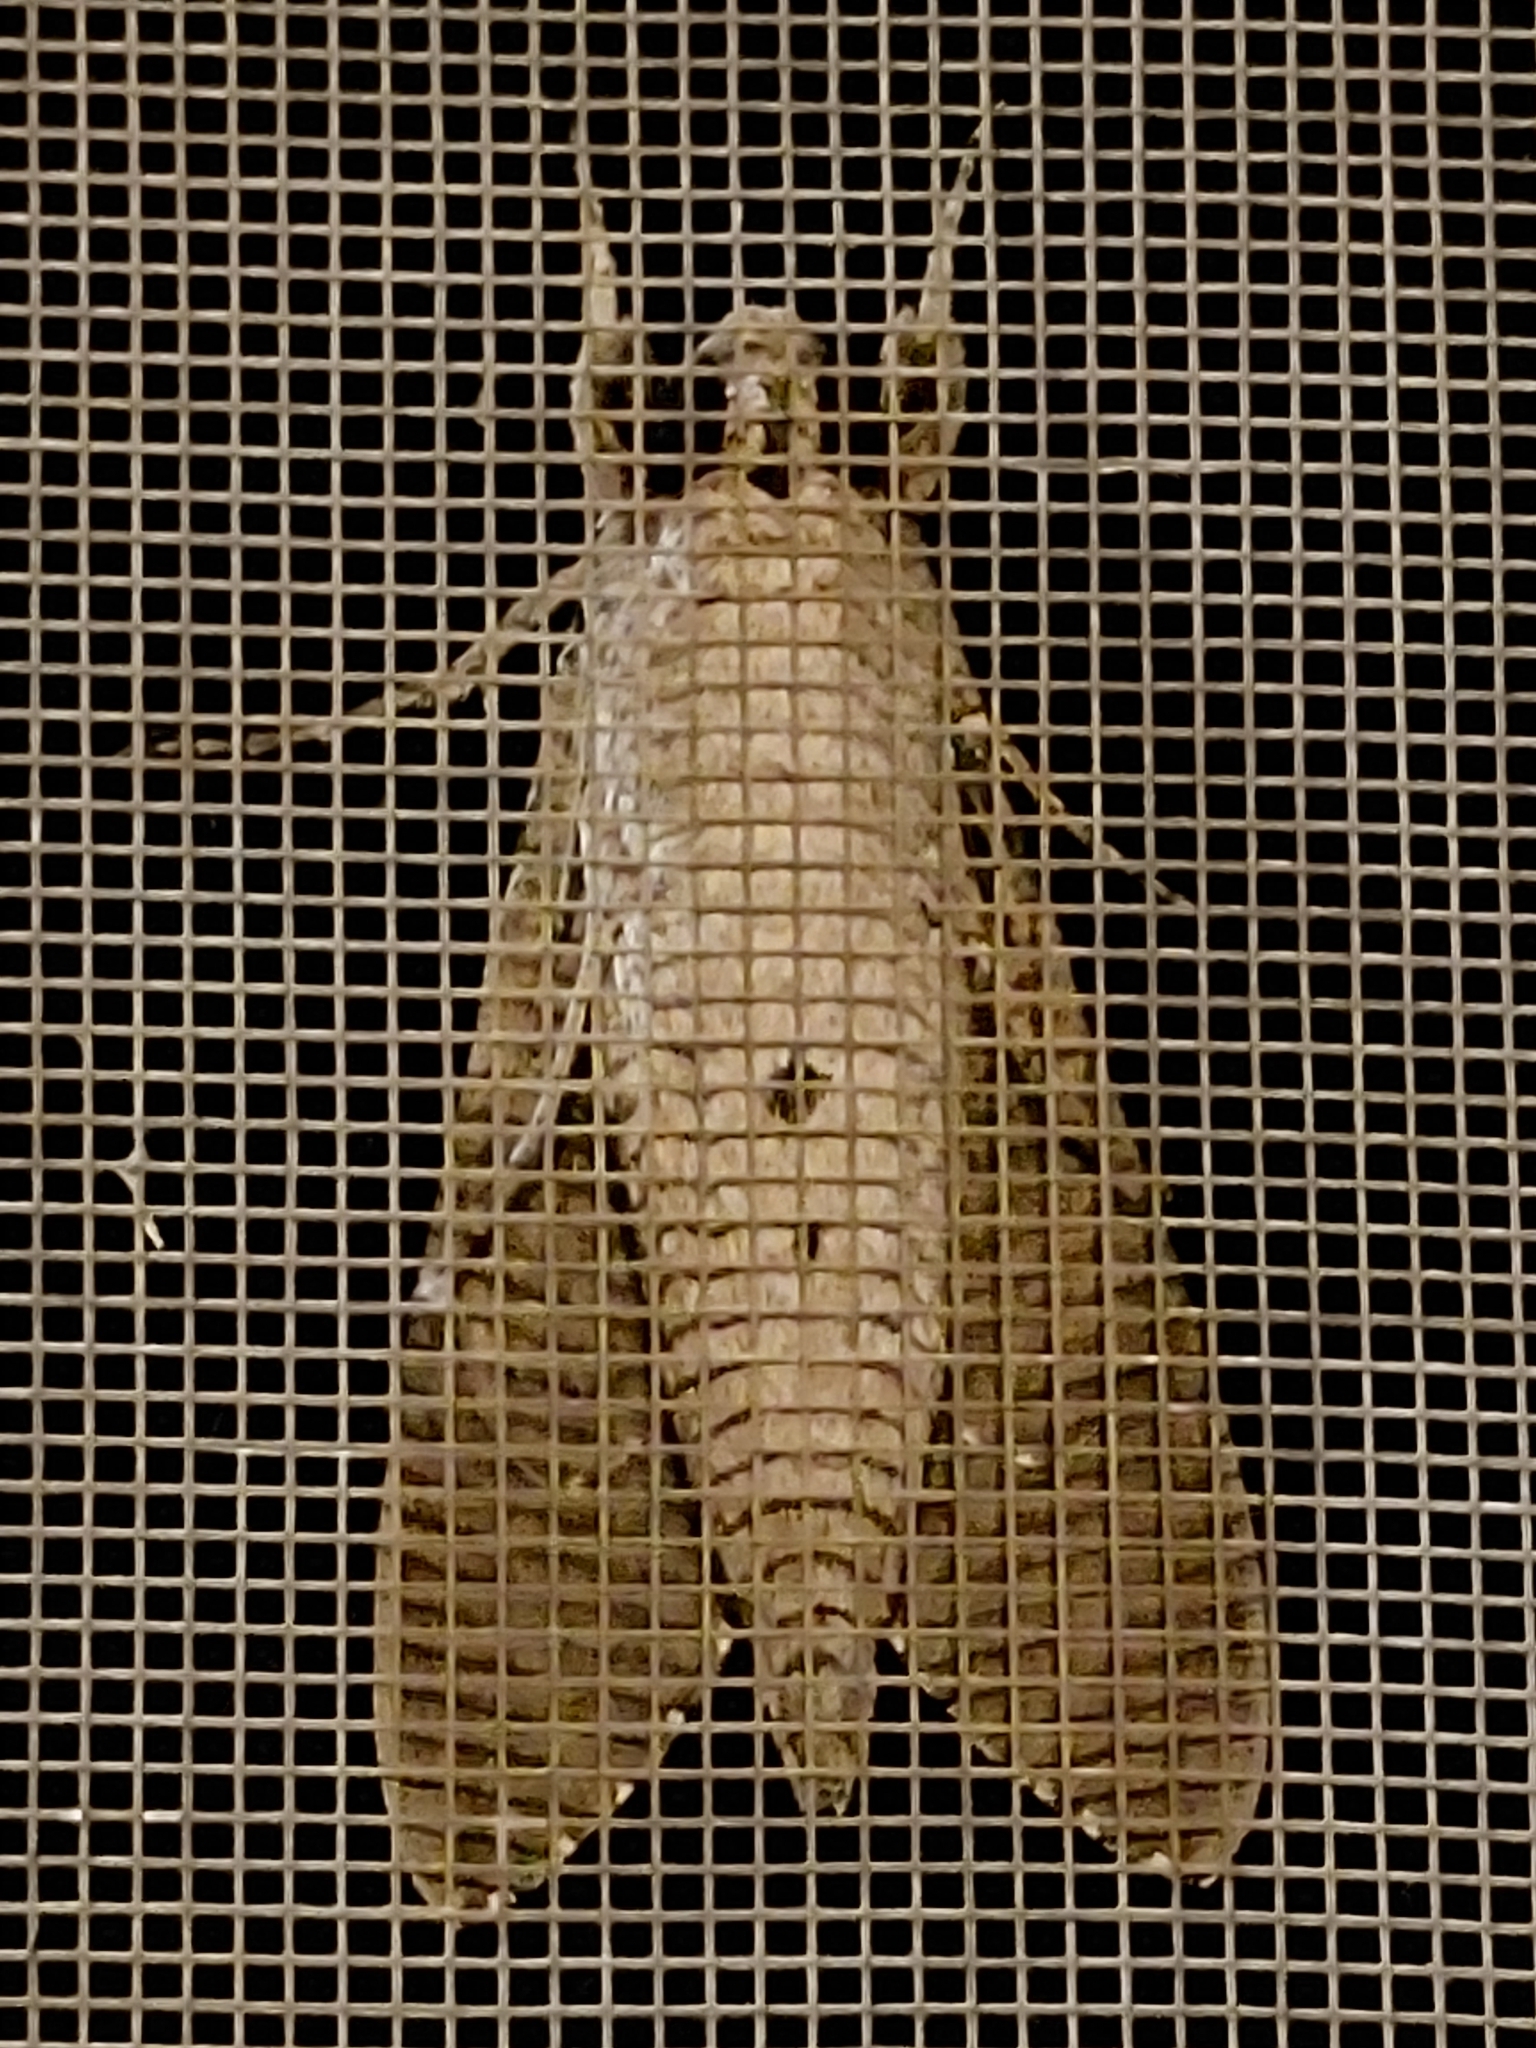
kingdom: Animalia
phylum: Arthropoda
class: Insecta
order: Lepidoptera
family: Sphingidae
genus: Agrius
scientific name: Agrius convolvuli
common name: Convolvulus hawkmoth
